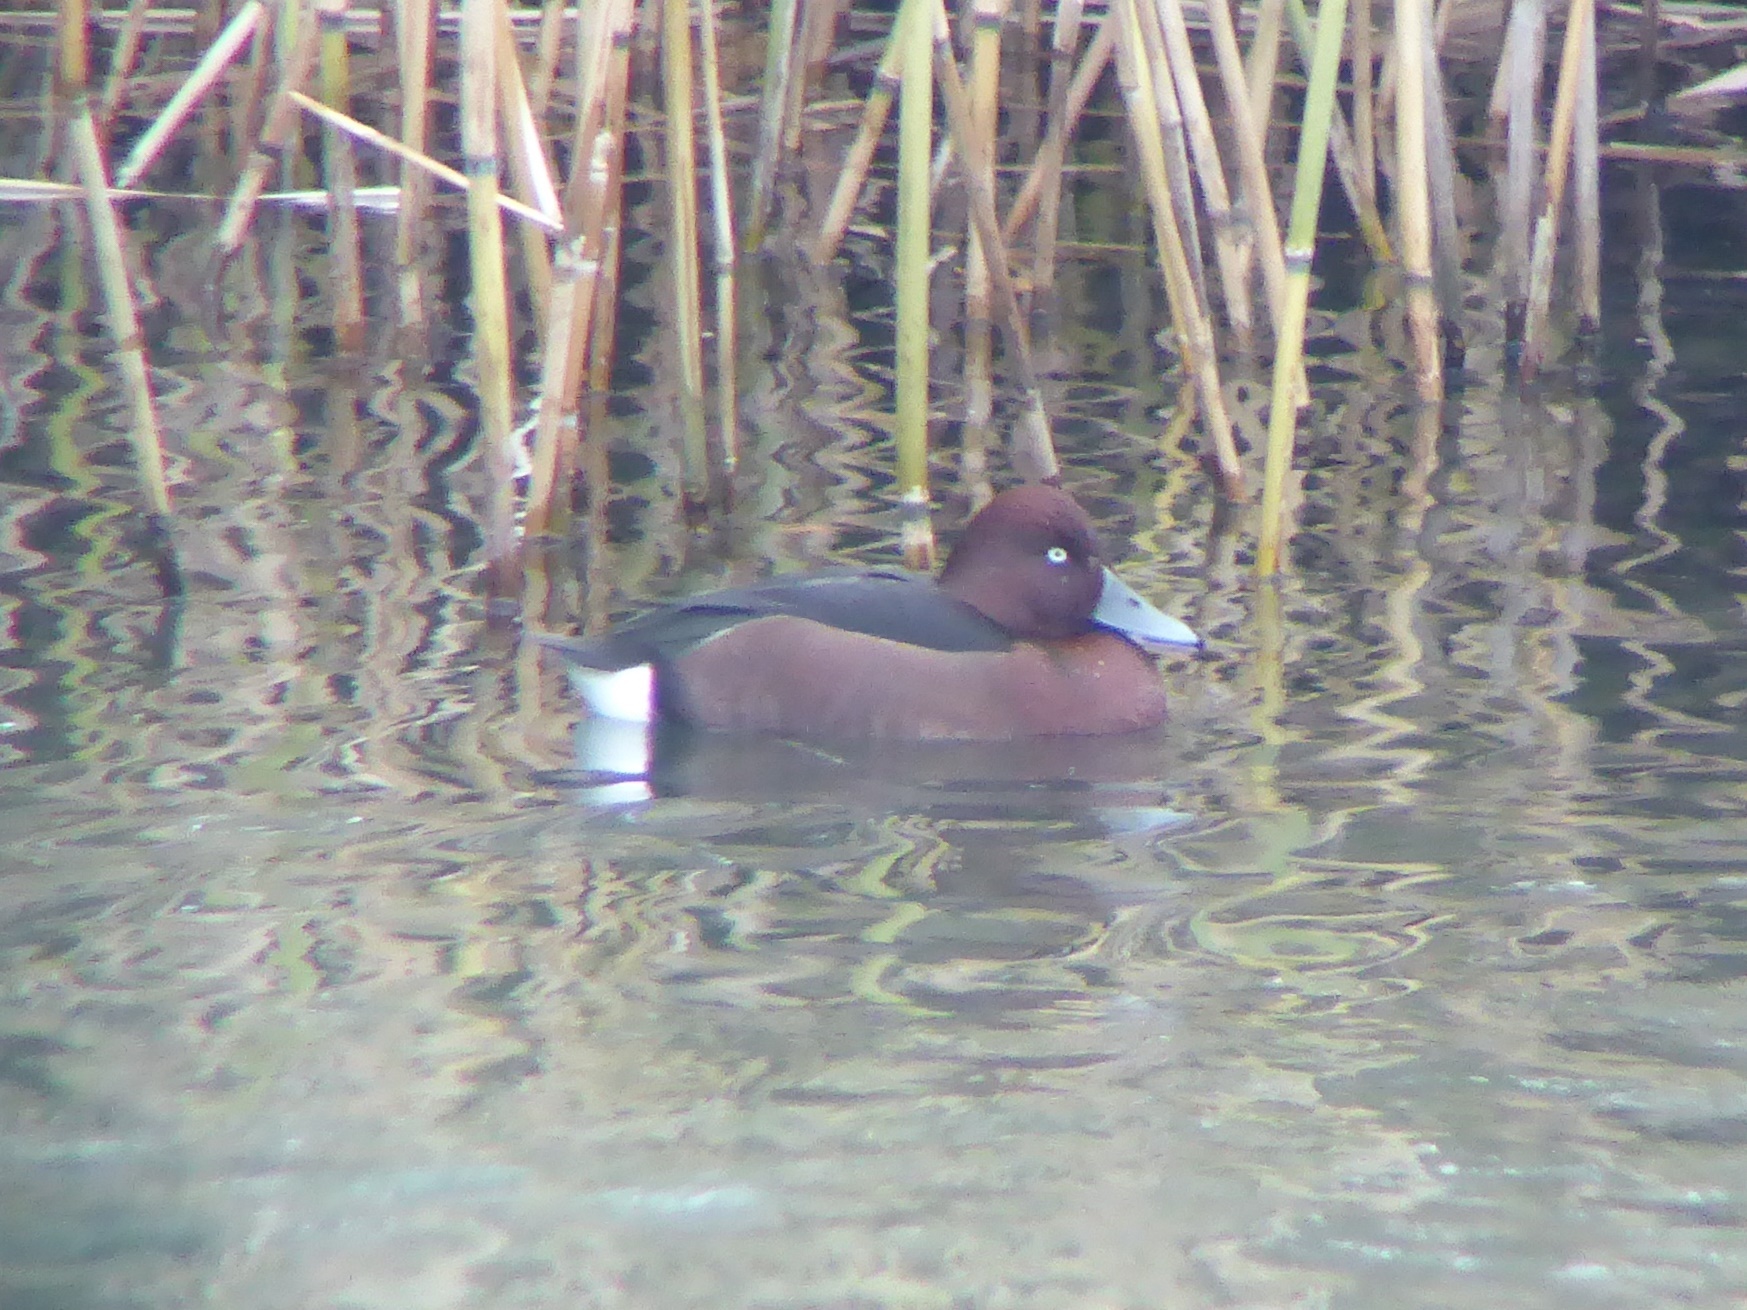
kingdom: Animalia
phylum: Chordata
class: Aves
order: Anseriformes
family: Anatidae
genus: Aythya
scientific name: Aythya nyroca
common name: Ferruginous duck
